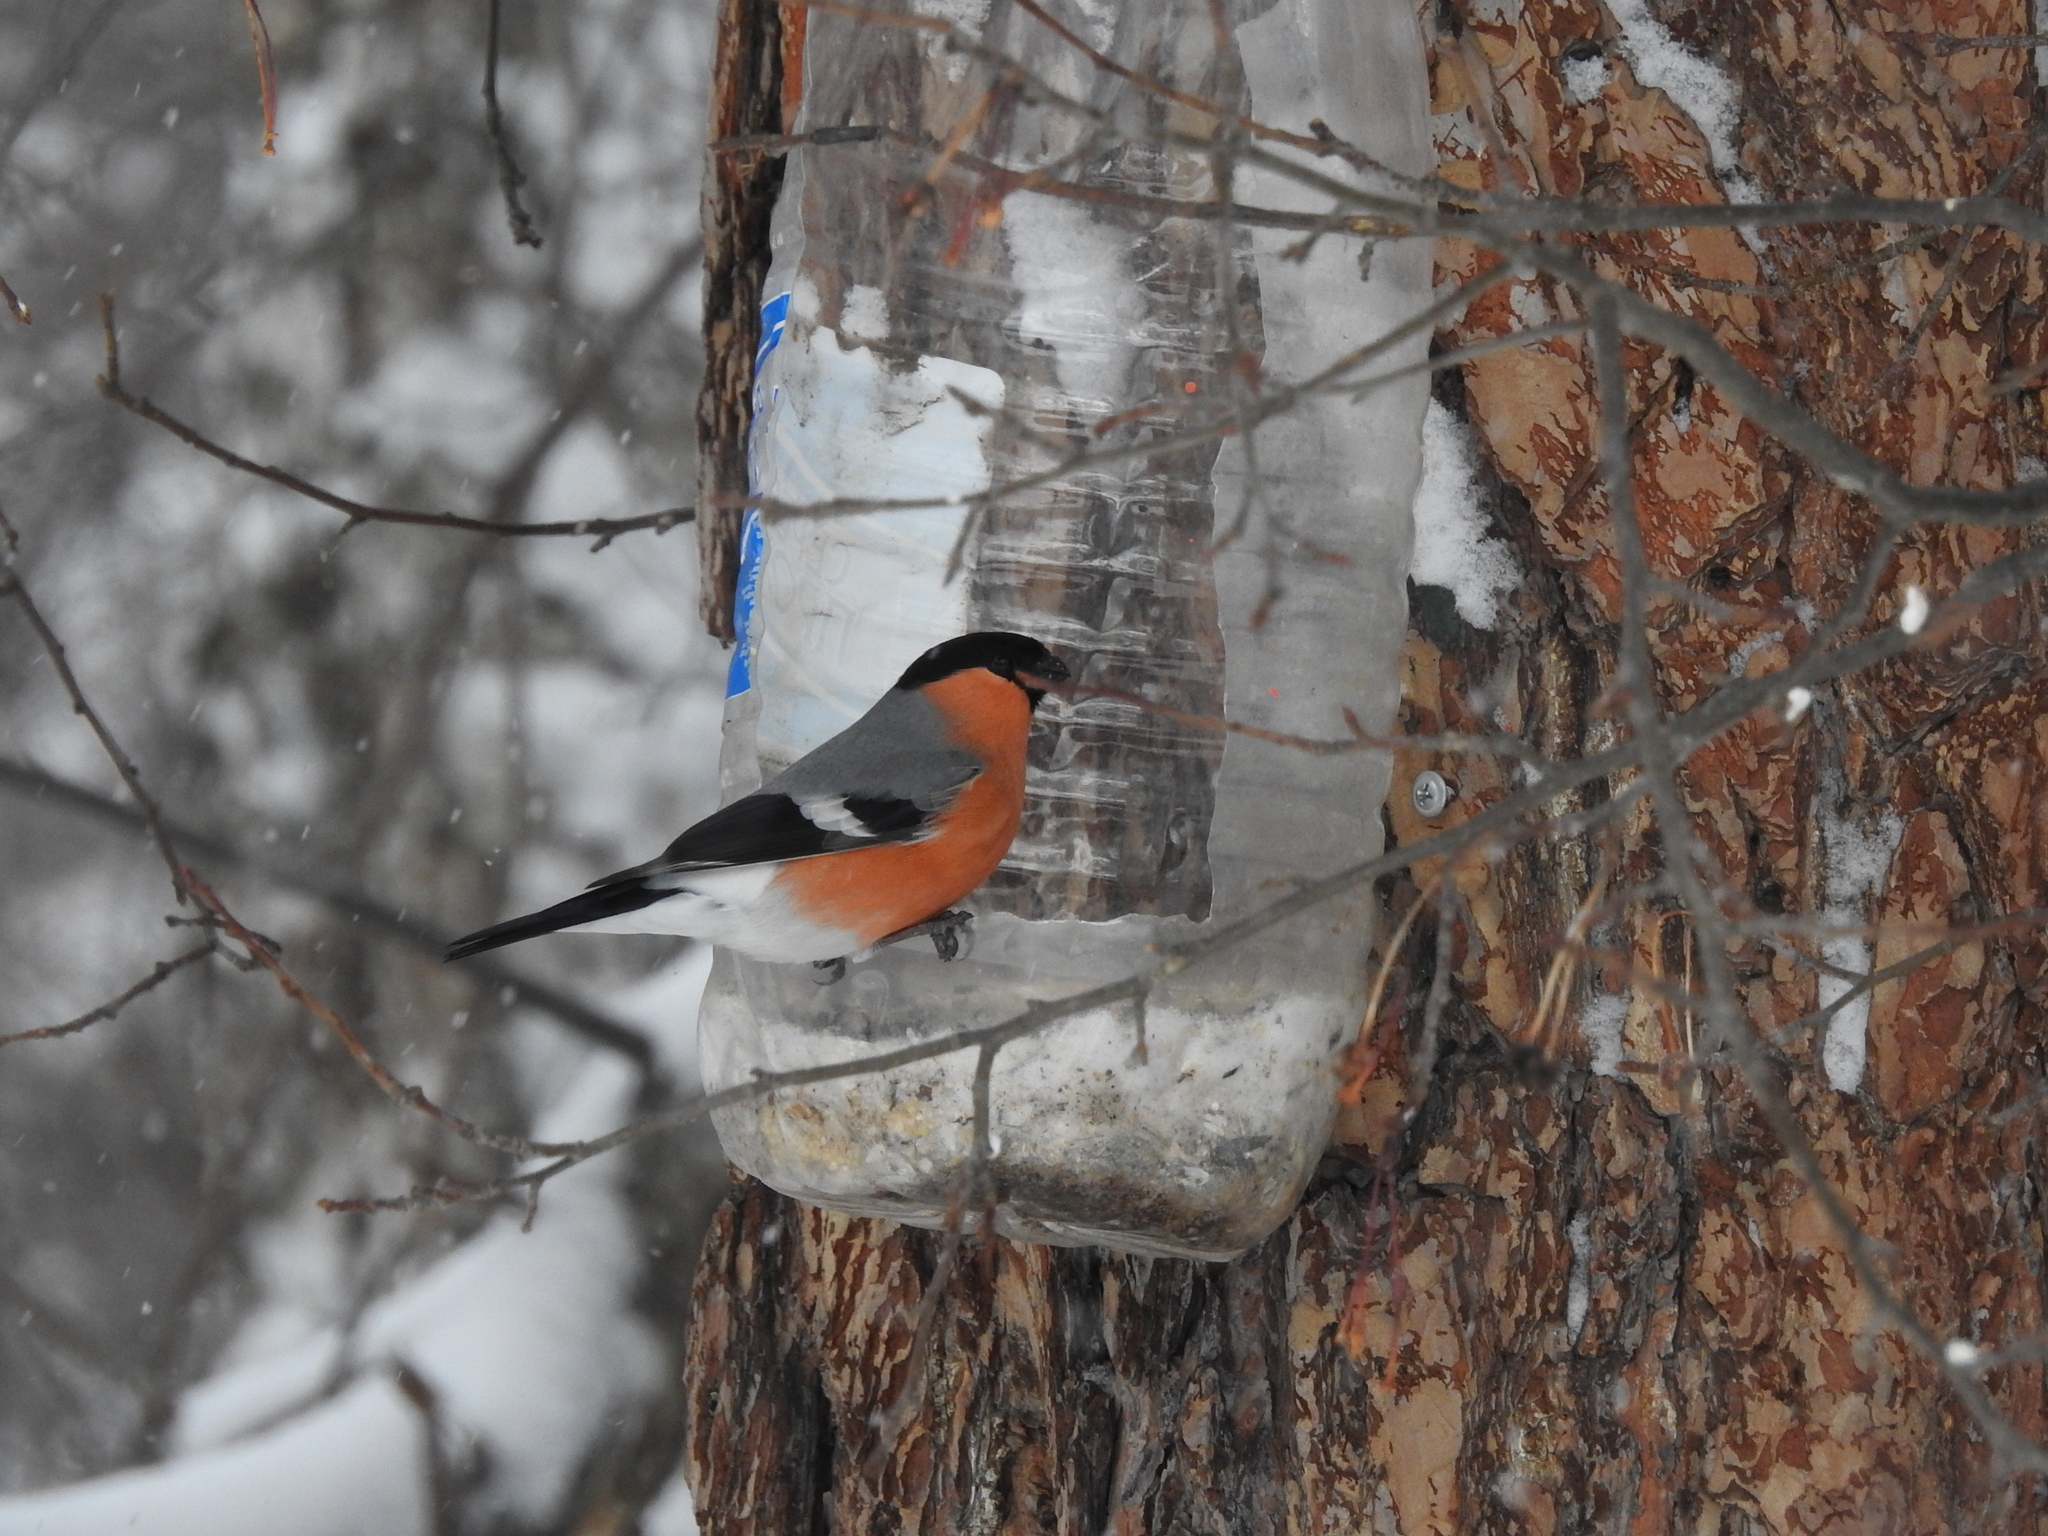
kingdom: Animalia
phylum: Chordata
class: Aves
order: Passeriformes
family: Fringillidae
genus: Pyrrhula
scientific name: Pyrrhula pyrrhula
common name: Eurasian bullfinch
